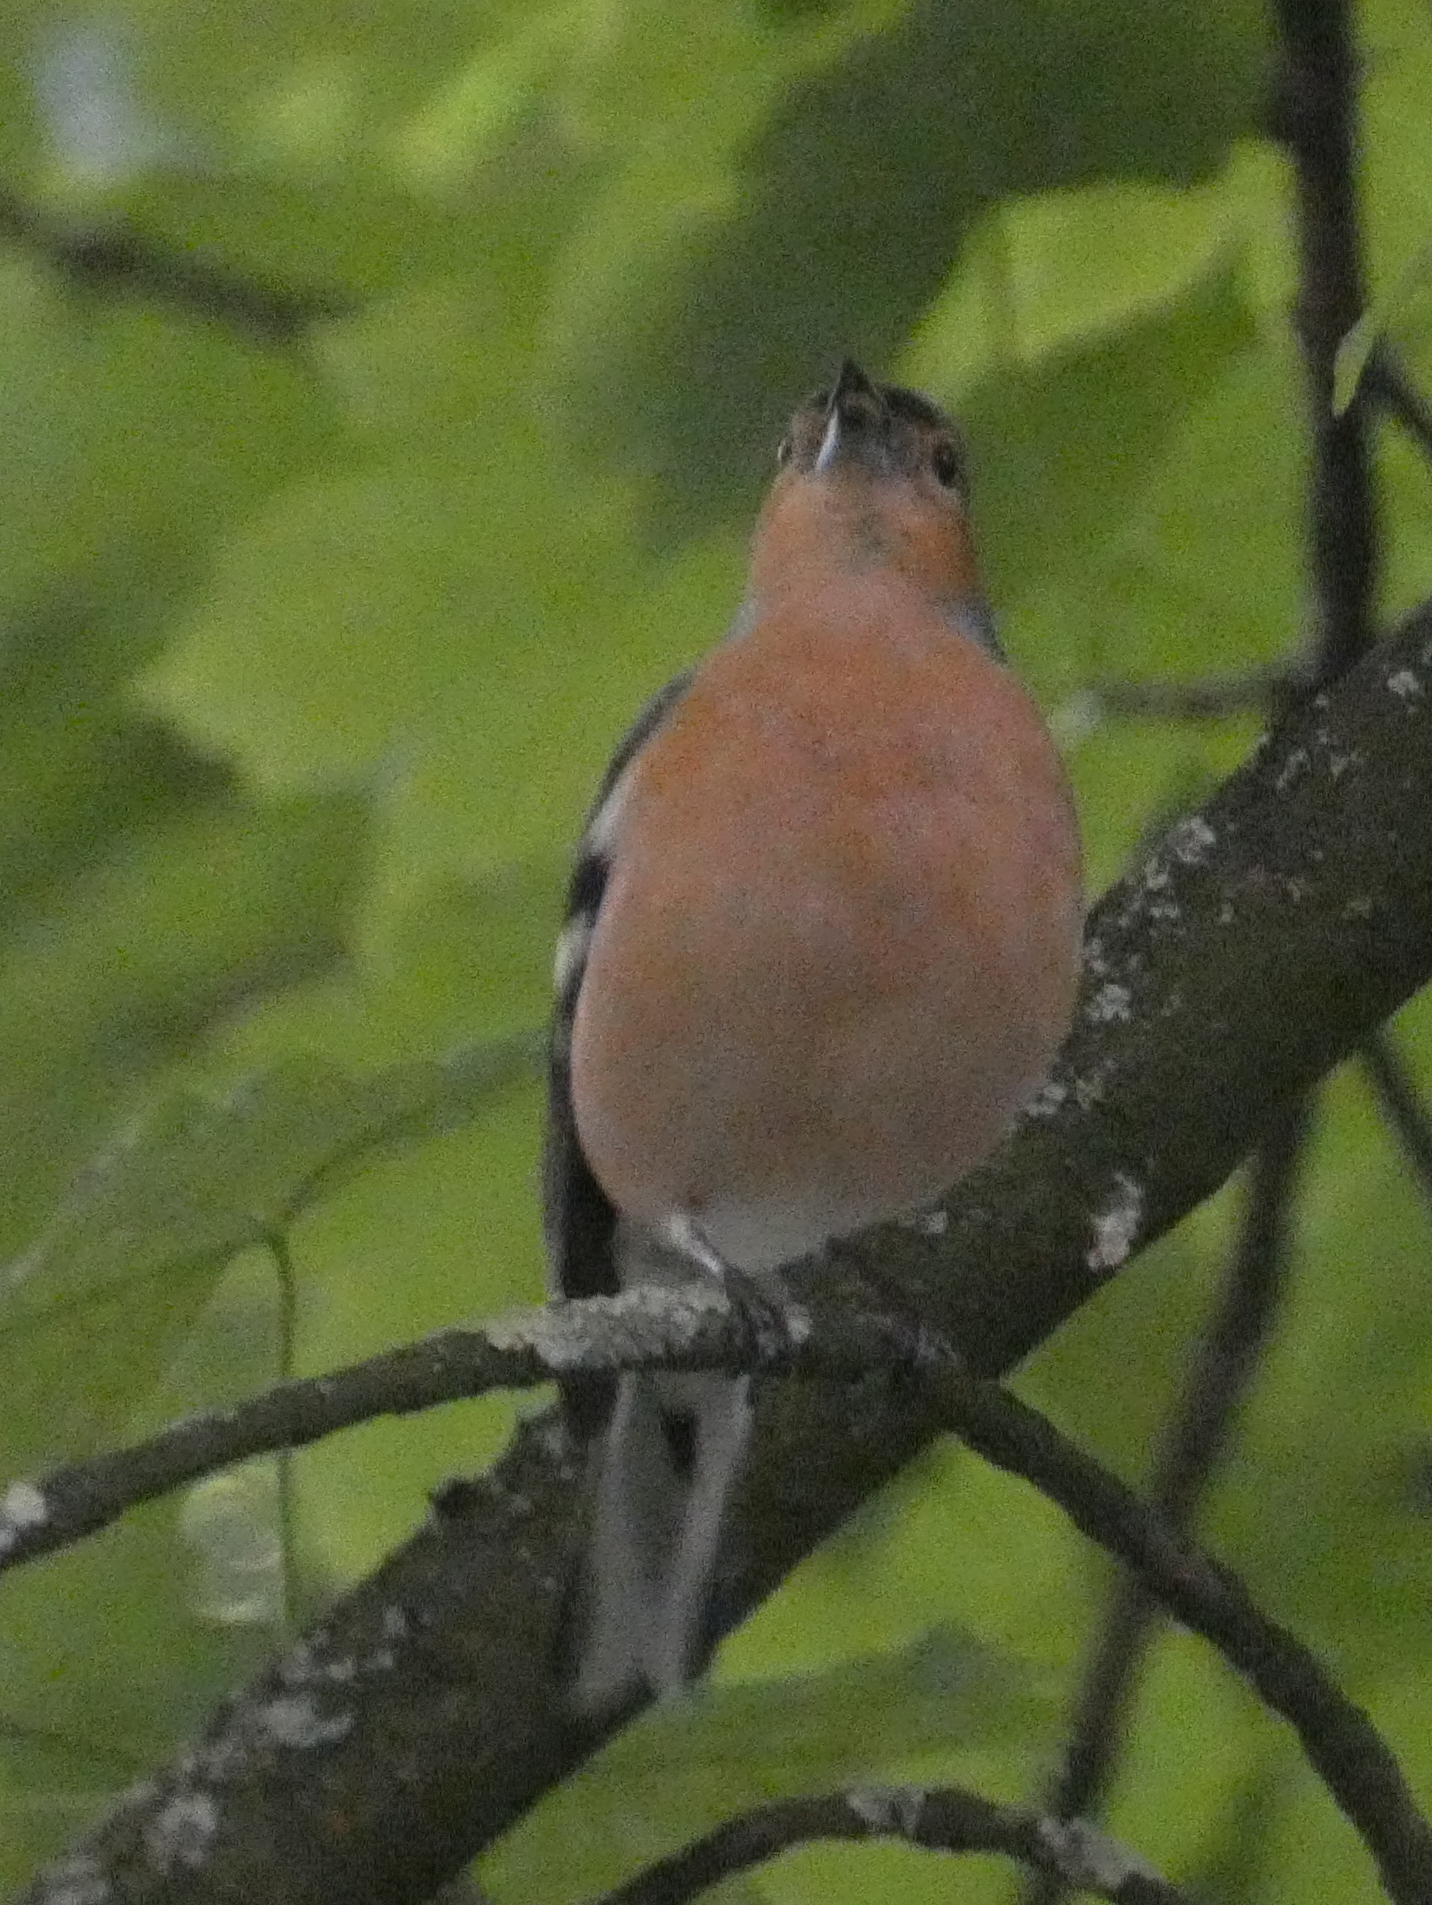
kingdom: Animalia
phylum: Chordata
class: Aves
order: Passeriformes
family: Fringillidae
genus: Fringilla
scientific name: Fringilla coelebs
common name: Common chaffinch
